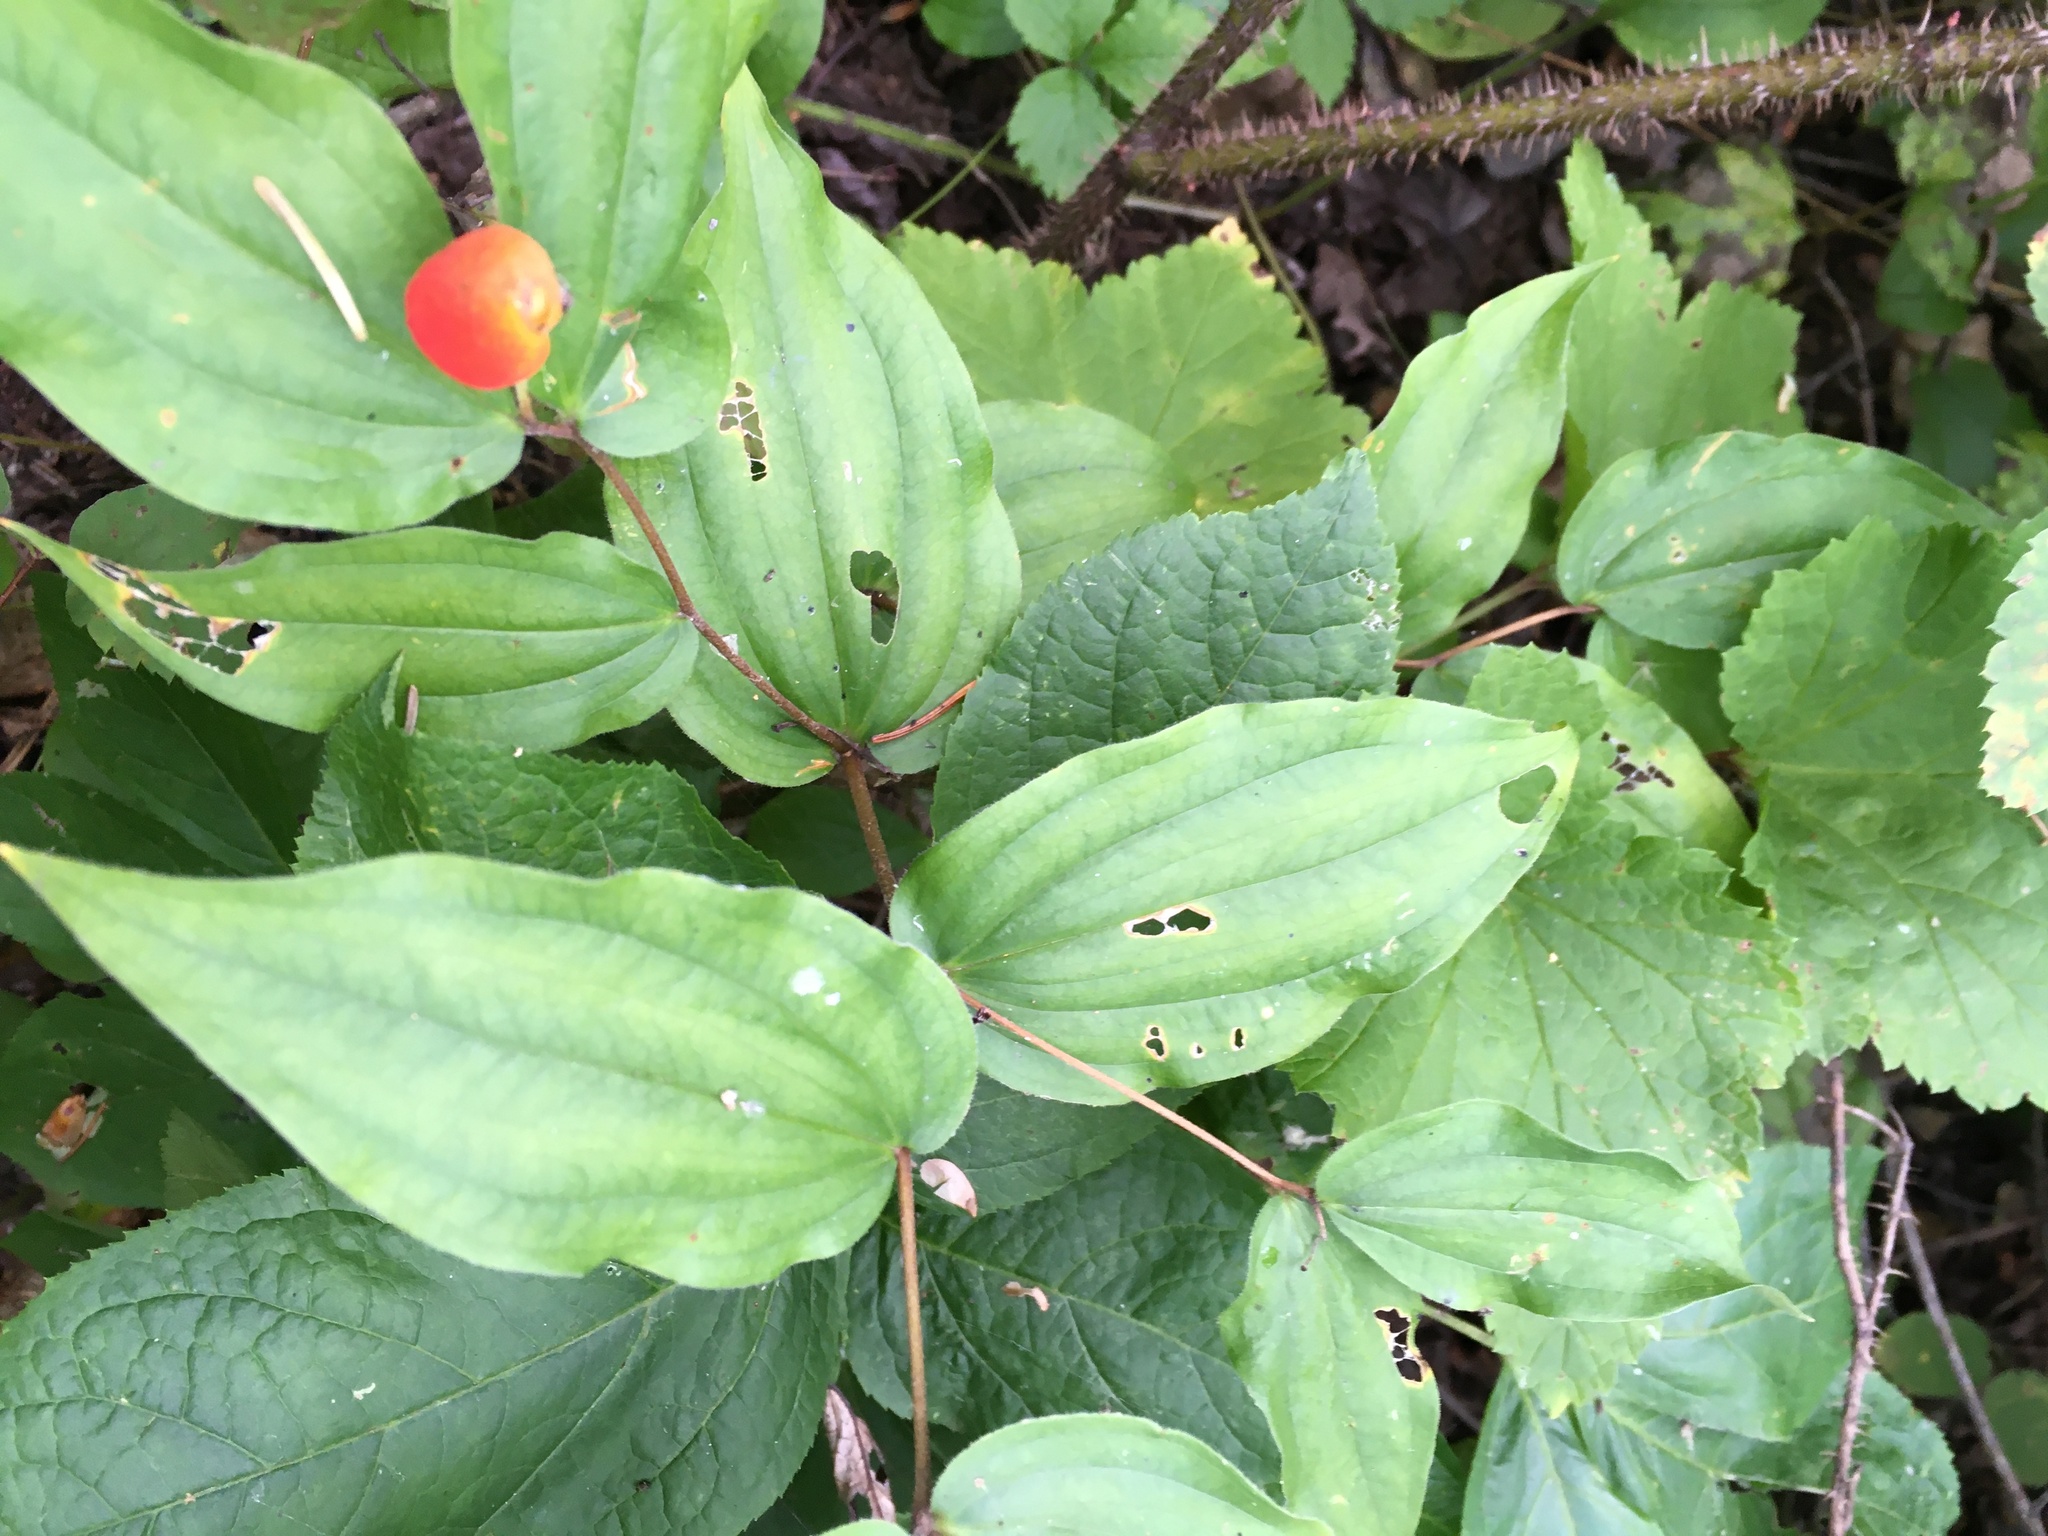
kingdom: Plantae
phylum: Tracheophyta
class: Liliopsida
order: Liliales
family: Liliaceae
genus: Prosartes
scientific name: Prosartes trachycarpa
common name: Rough-fruit fairy-bells
